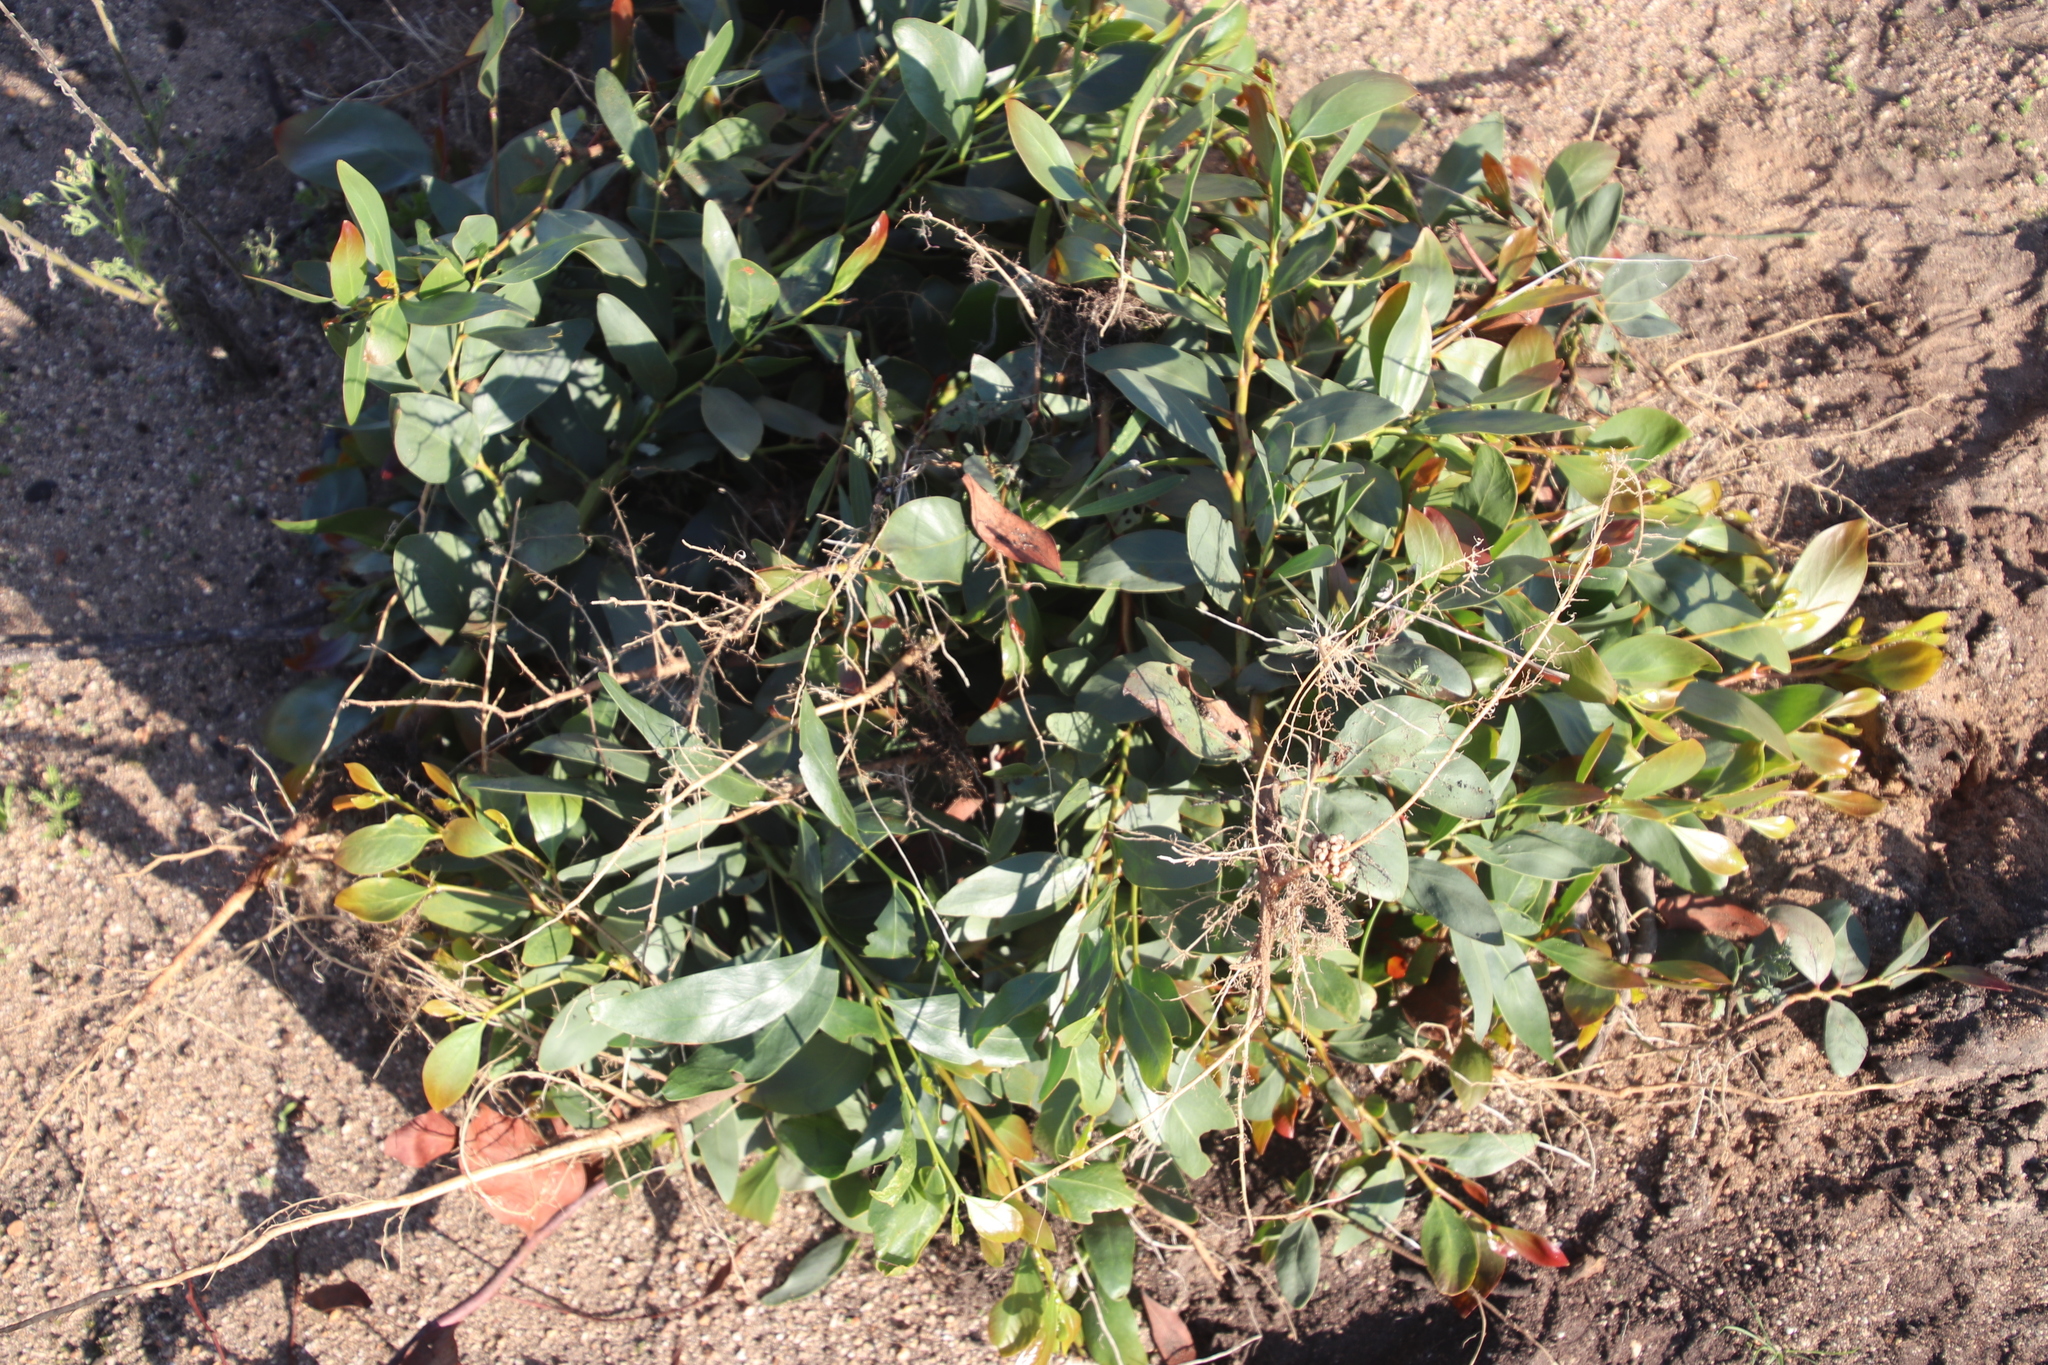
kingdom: Plantae
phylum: Tracheophyta
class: Magnoliopsida
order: Fabales
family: Fabaceae
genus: Acacia
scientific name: Acacia pycnantha
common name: Golden wattle
